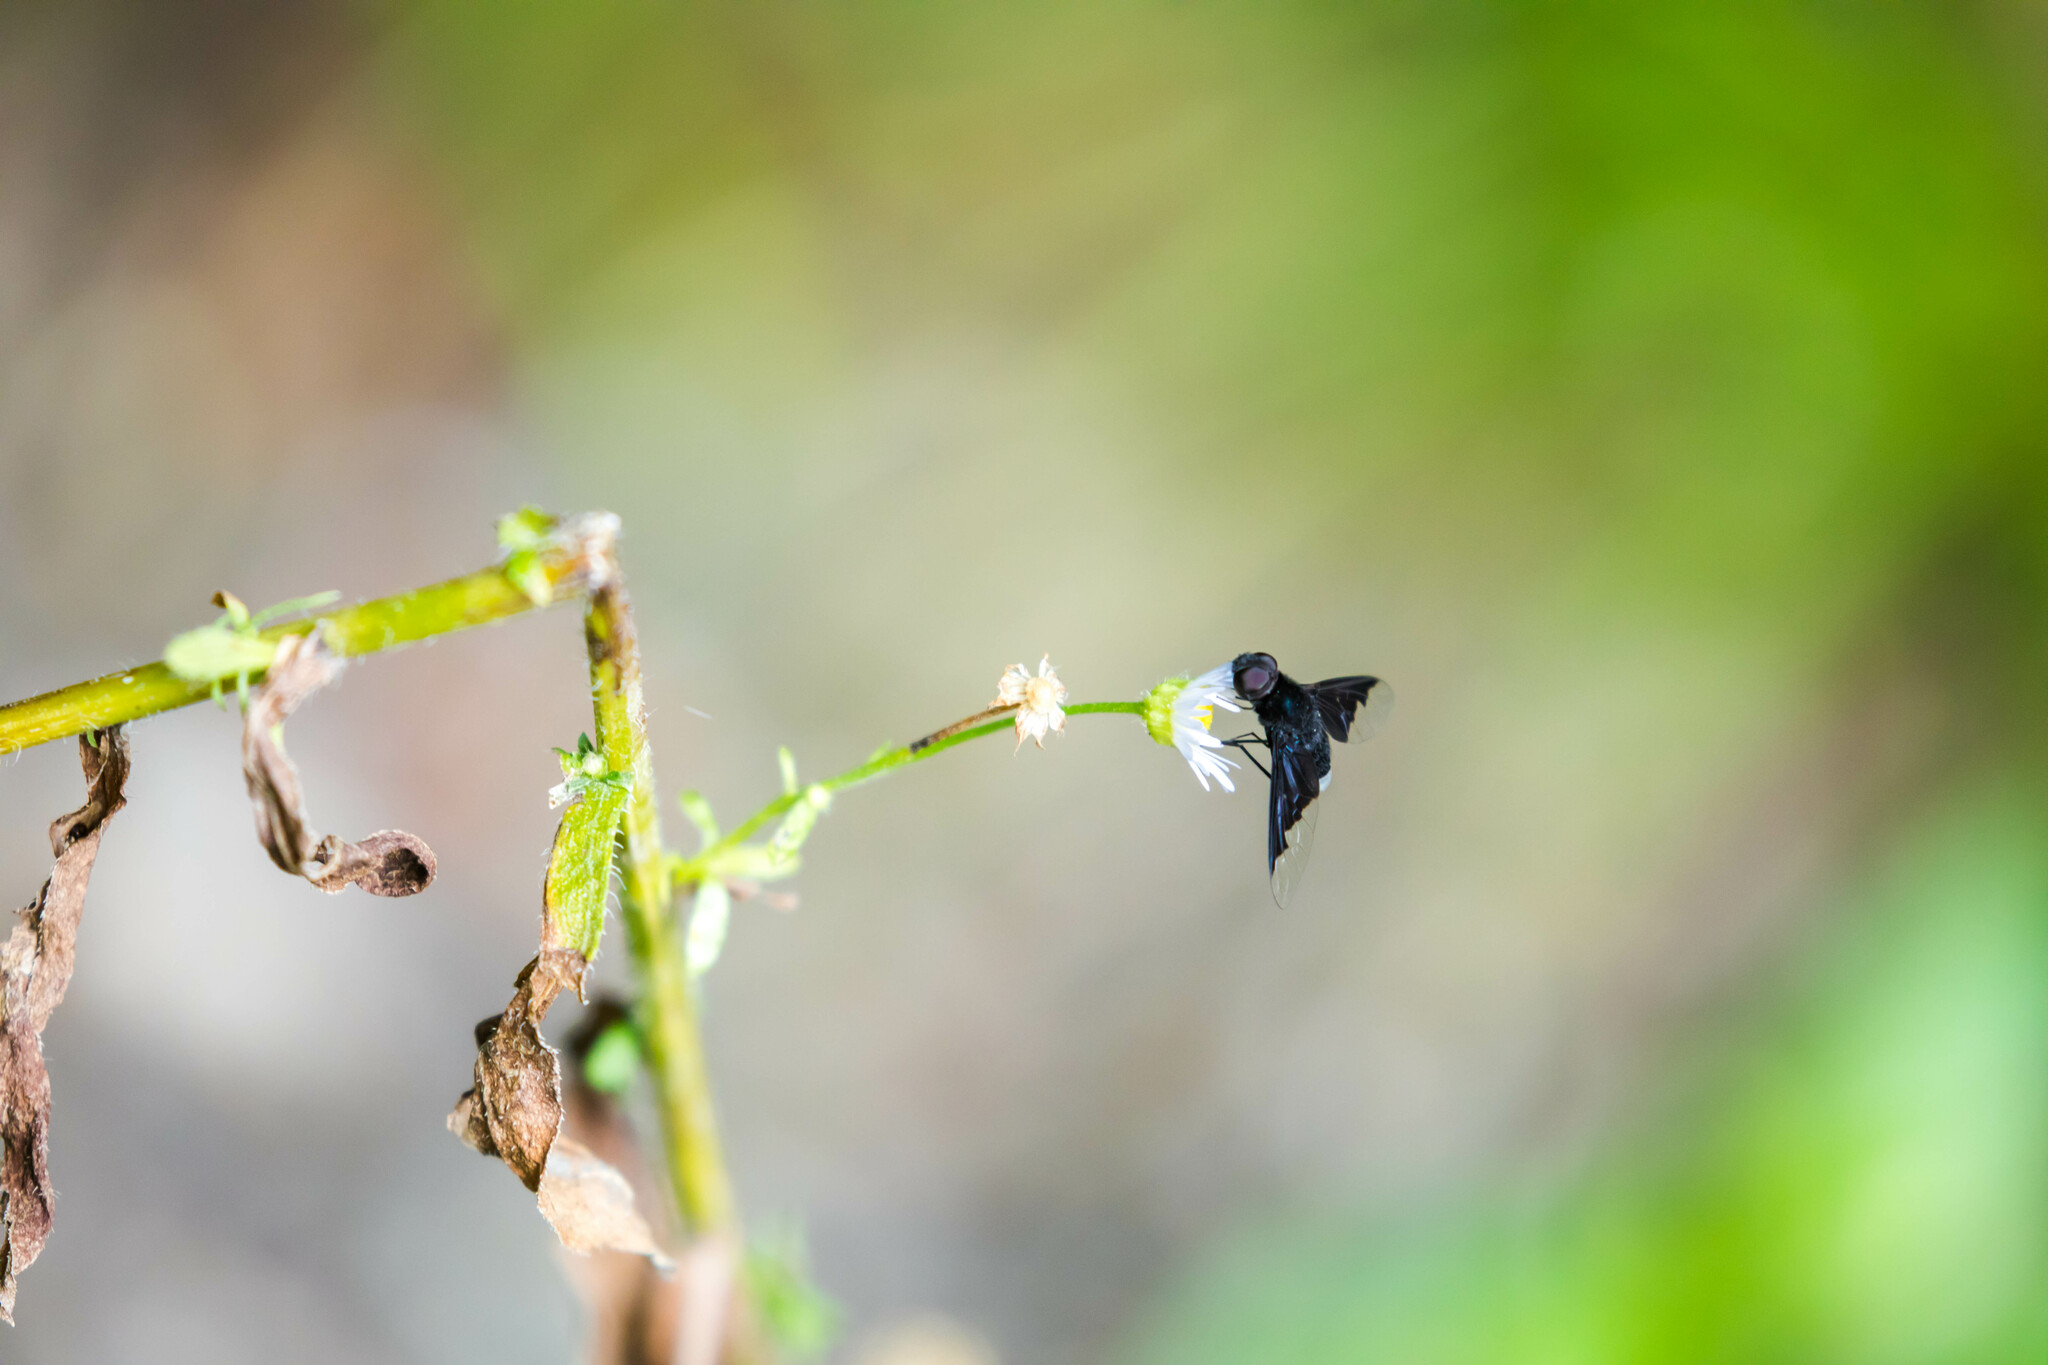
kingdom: Animalia
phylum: Arthropoda
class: Insecta
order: Diptera
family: Bombyliidae
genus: Anthrax
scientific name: Anthrax analis
